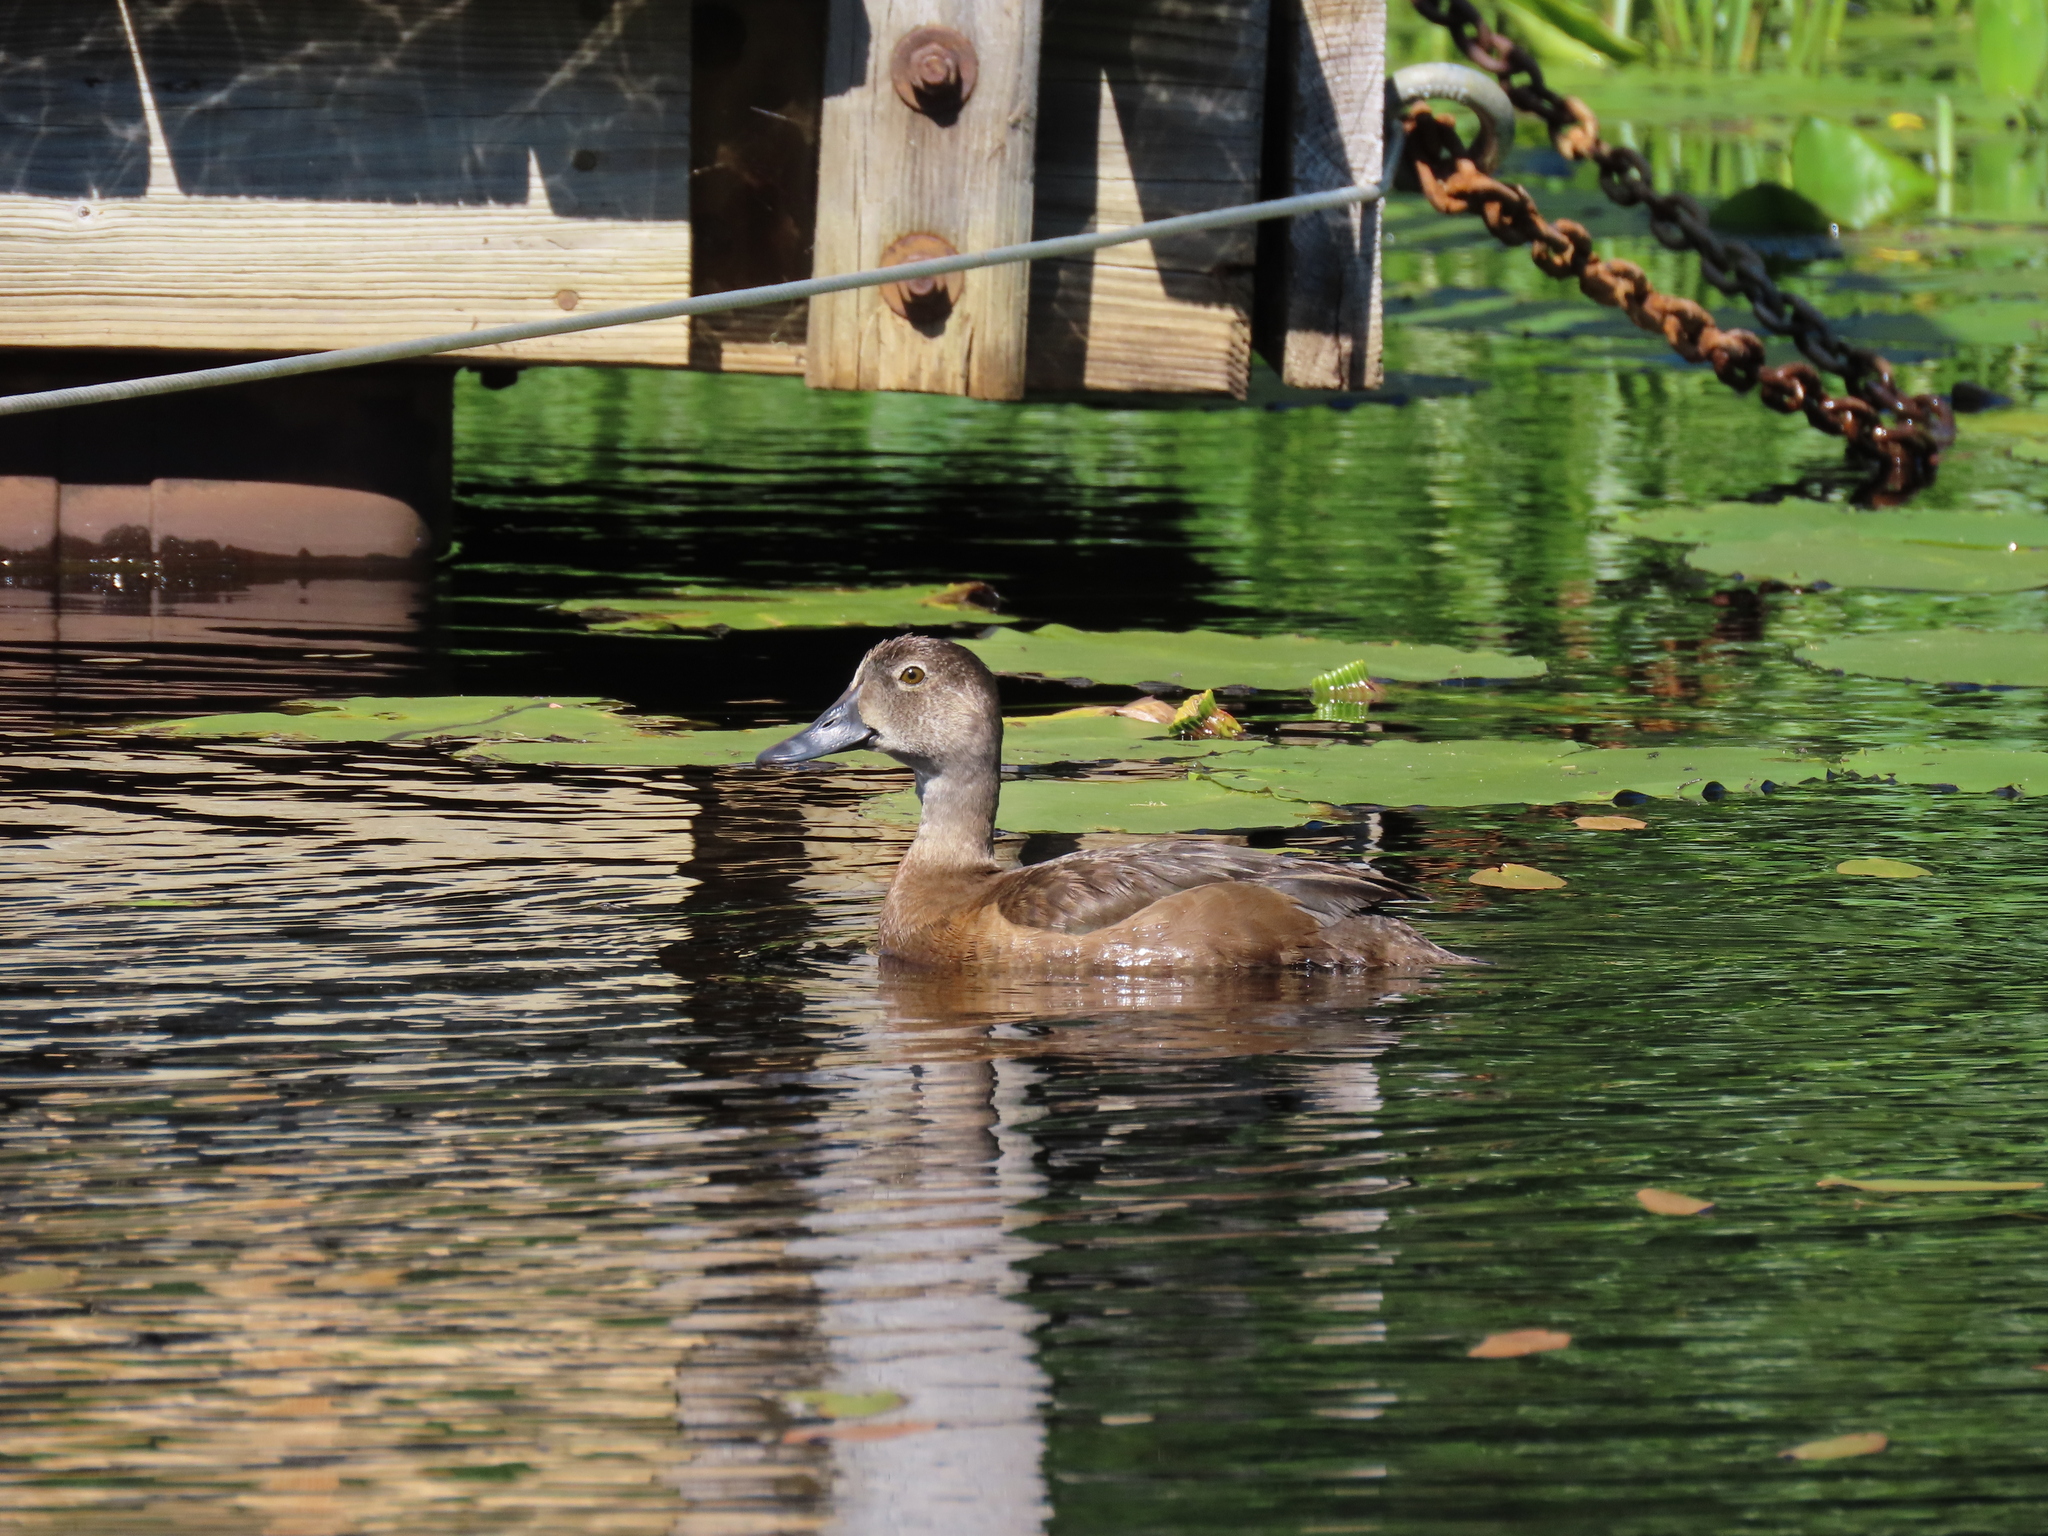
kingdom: Animalia
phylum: Chordata
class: Aves
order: Anseriformes
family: Anatidae
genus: Aythya
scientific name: Aythya collaris
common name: Ring-necked duck
